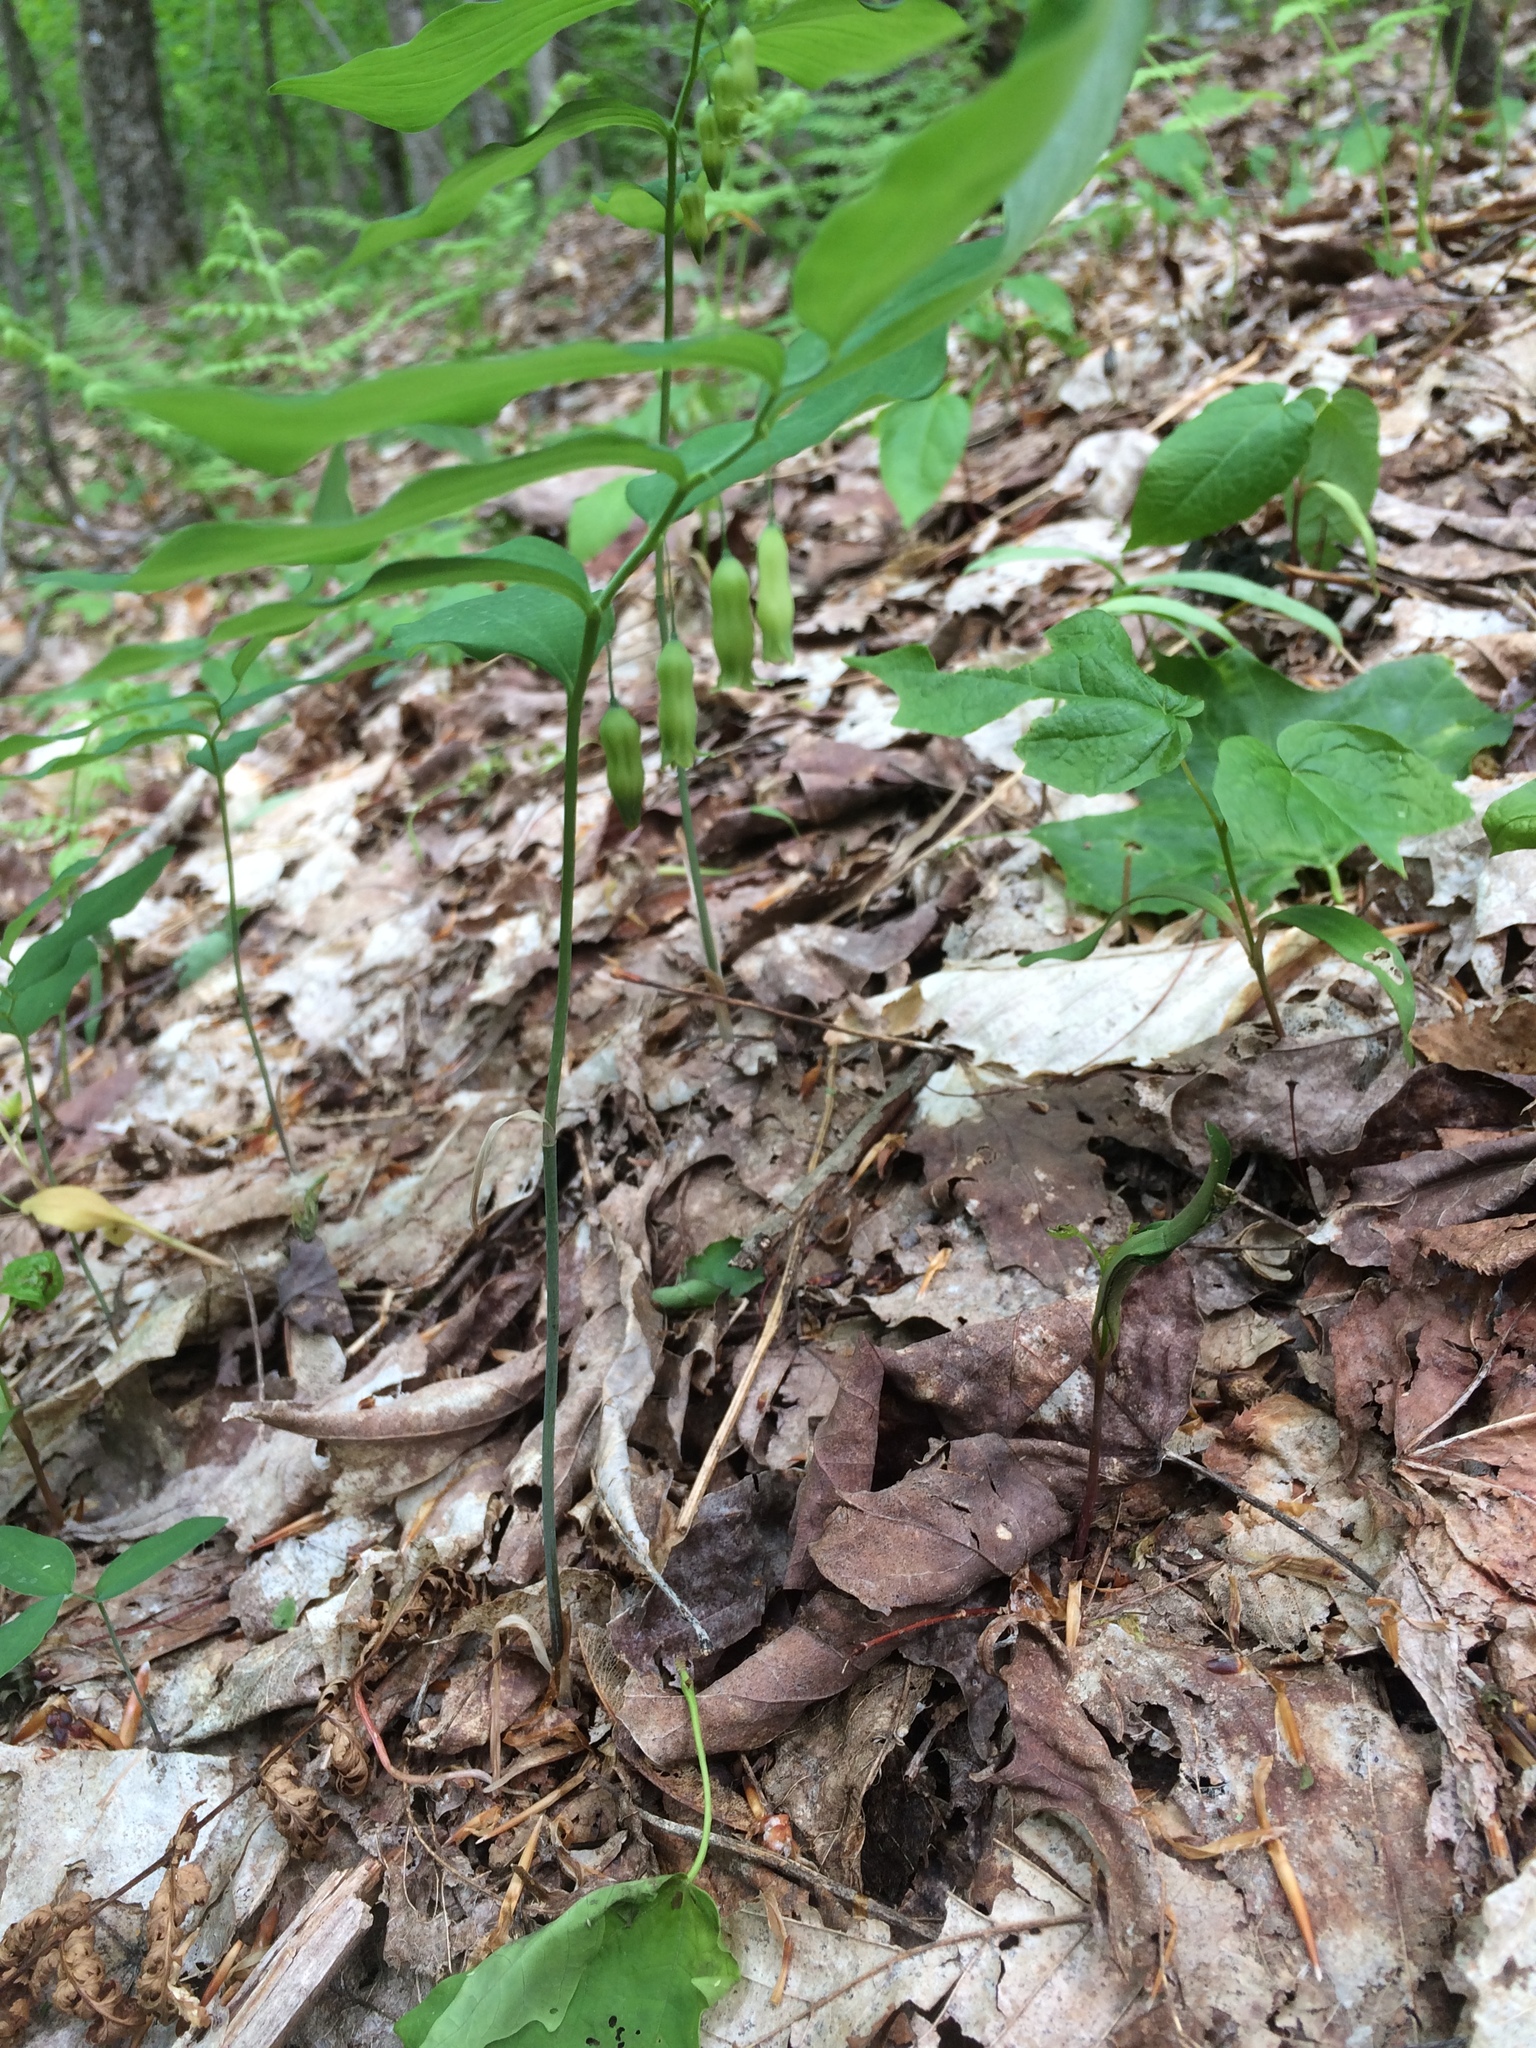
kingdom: Plantae
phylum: Tracheophyta
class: Liliopsida
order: Asparagales
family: Asparagaceae
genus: Polygonatum
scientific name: Polygonatum pubescens
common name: Downy solomon's seal
